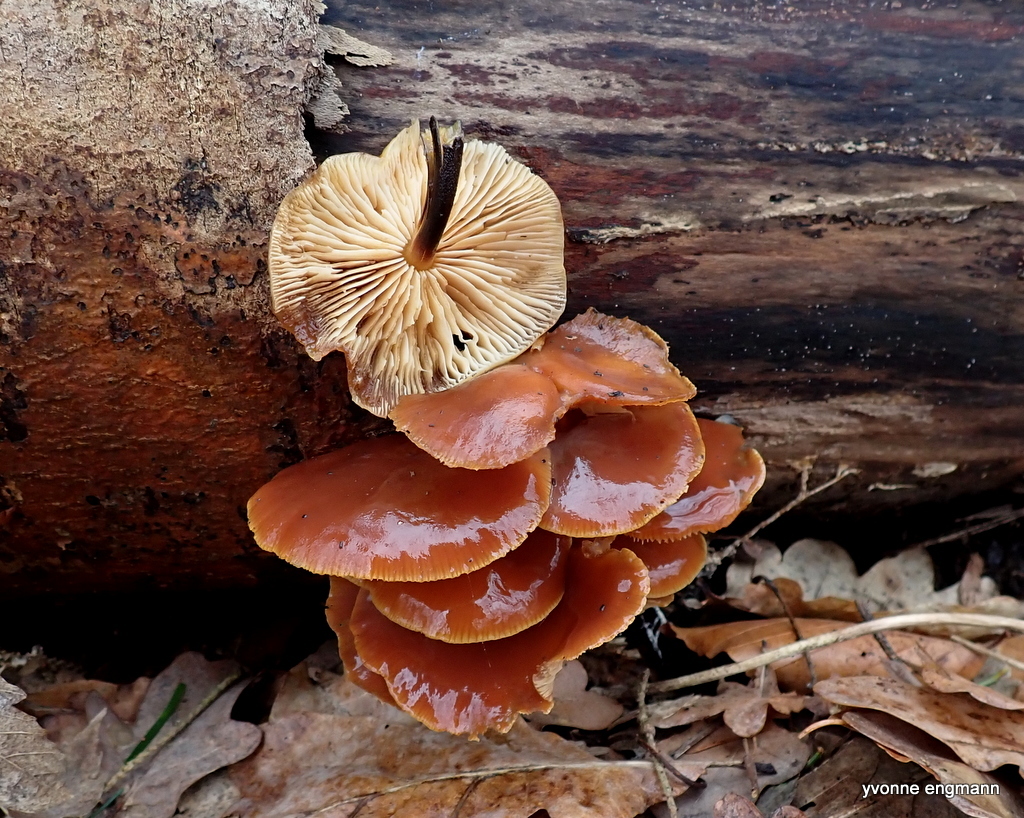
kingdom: Fungi
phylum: Basidiomycota
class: Agaricomycetes
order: Agaricales
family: Physalacriaceae
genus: Flammulina
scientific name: Flammulina
